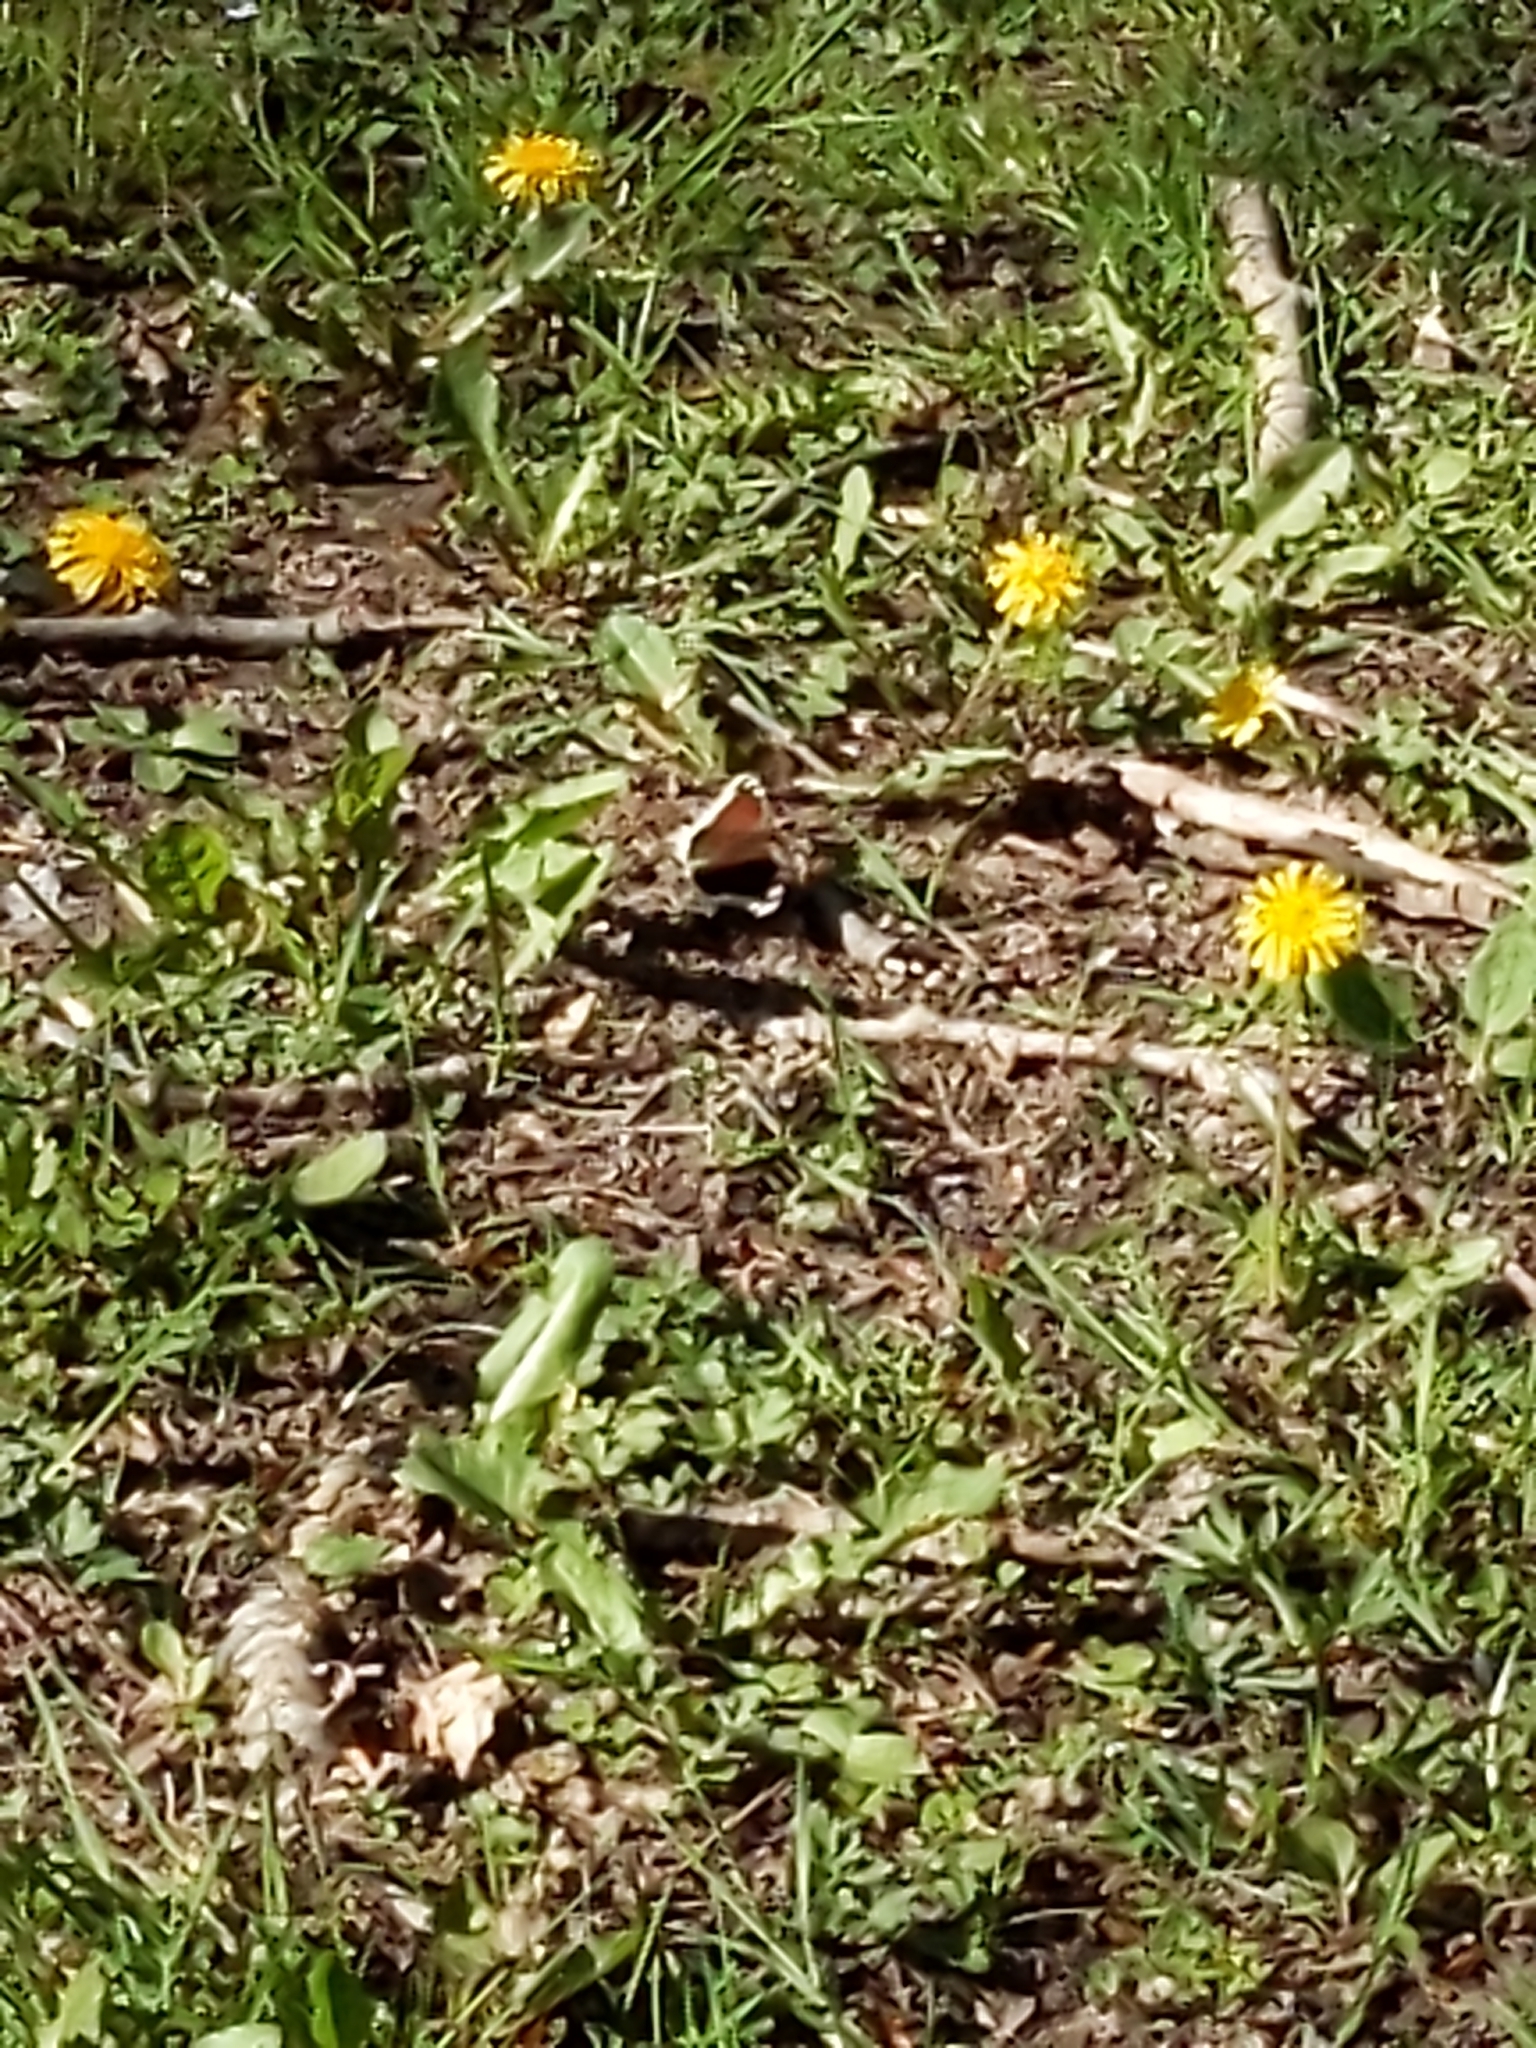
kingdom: Animalia
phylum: Arthropoda
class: Insecta
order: Lepidoptera
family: Nymphalidae
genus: Nymphalis
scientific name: Nymphalis antiopa
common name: Camberwell beauty
